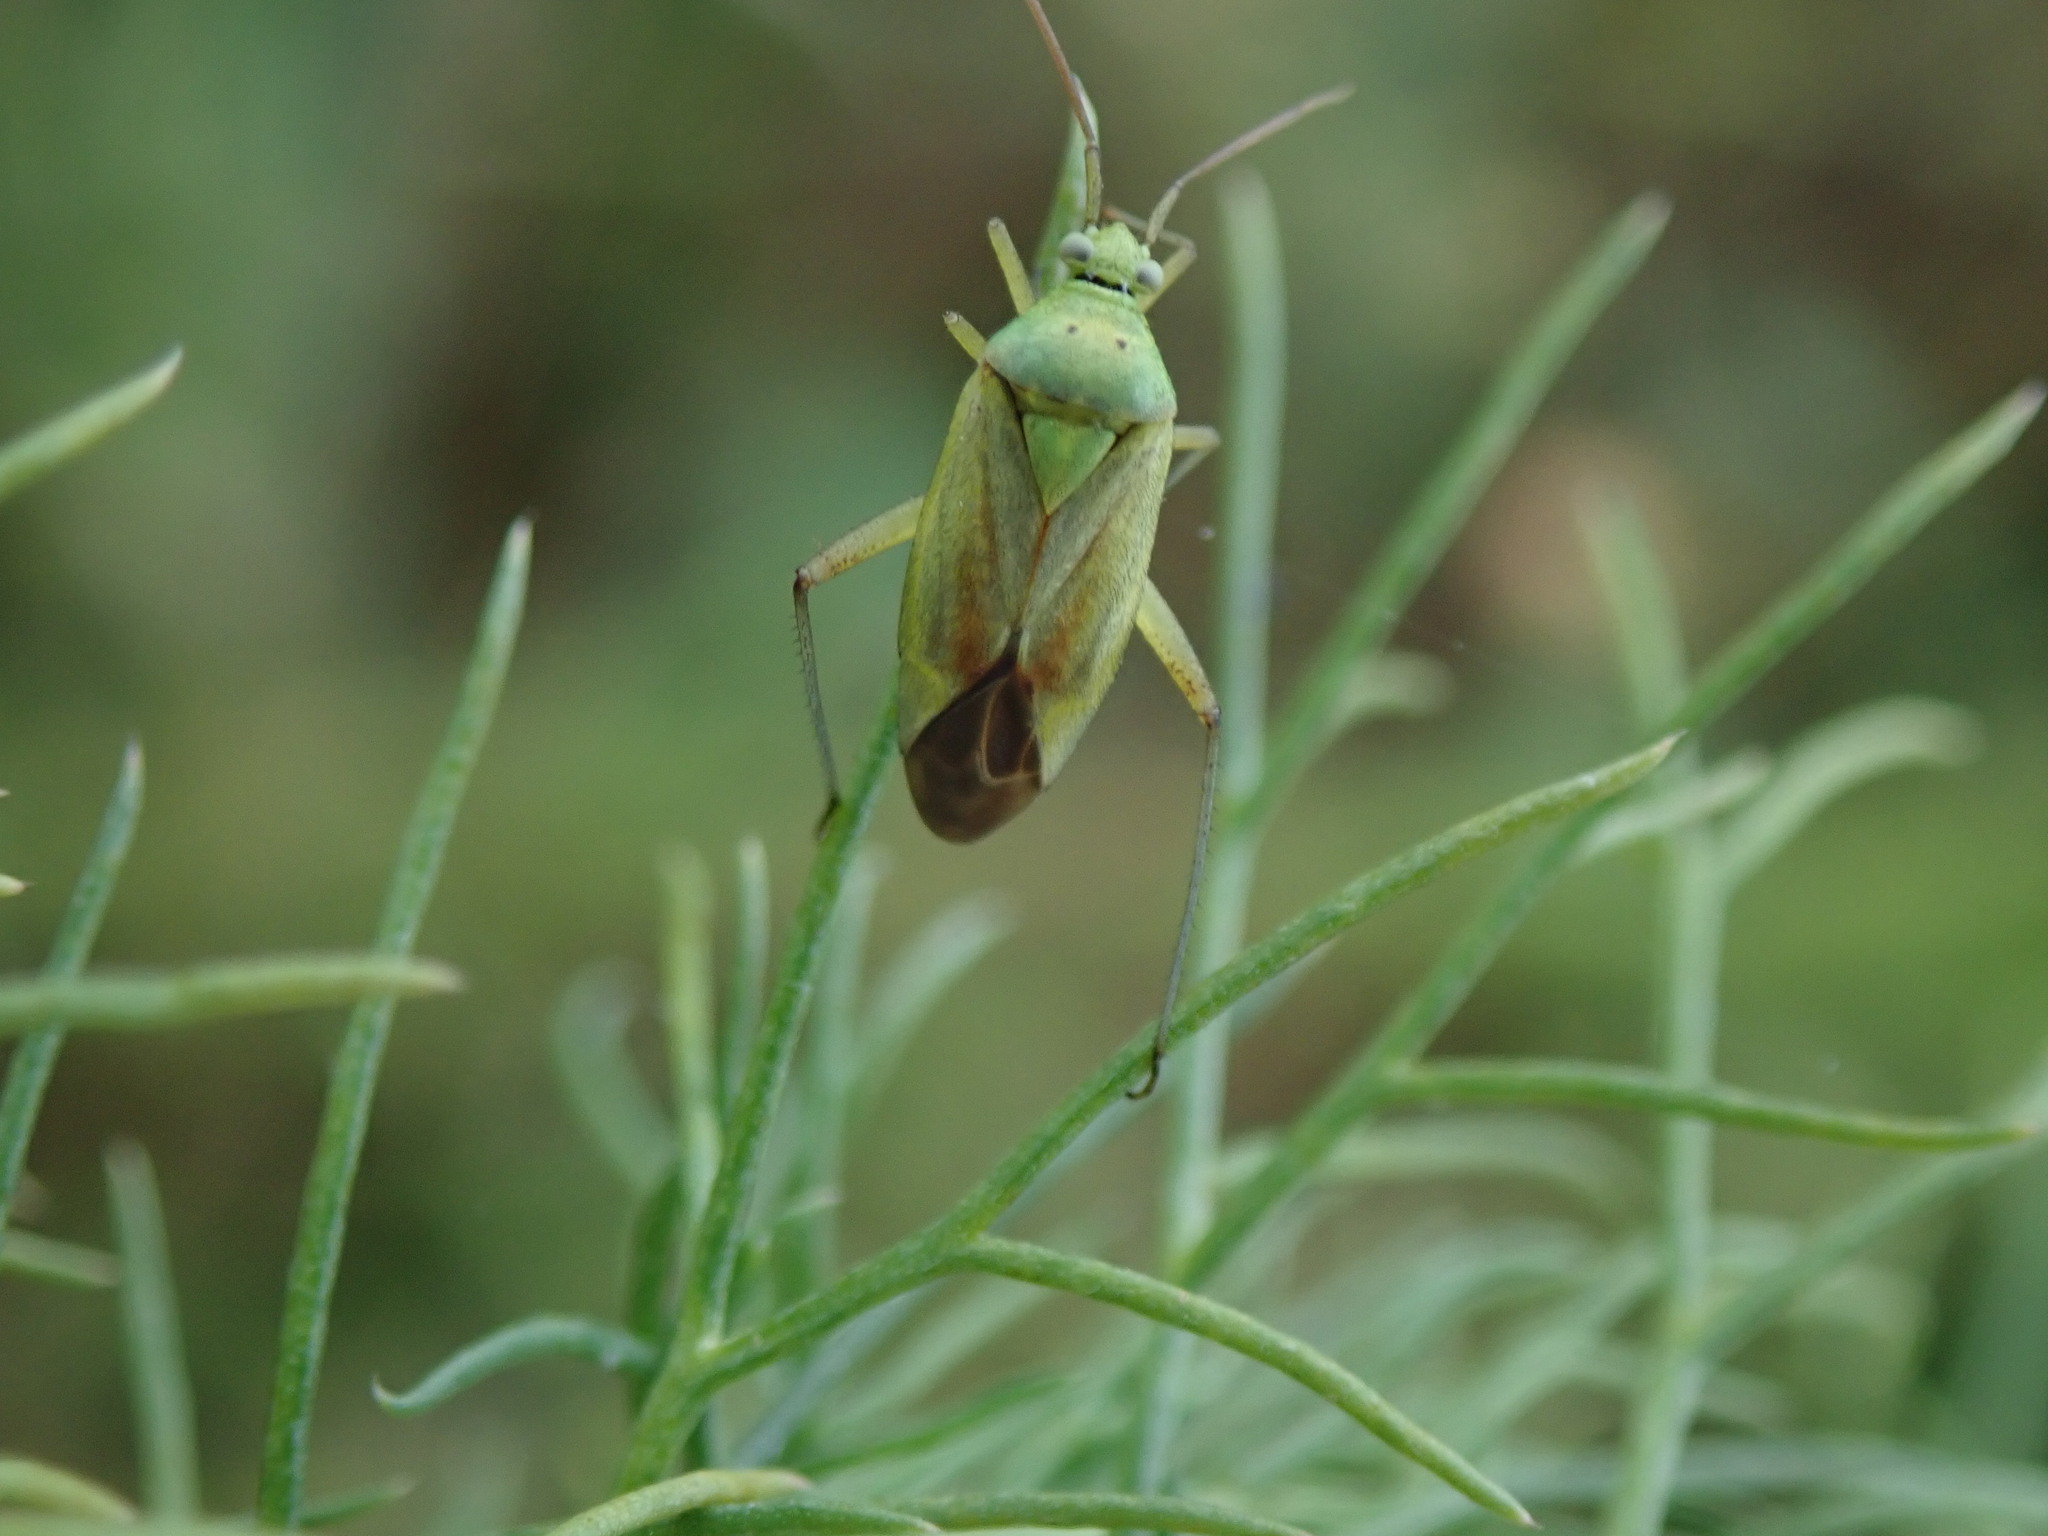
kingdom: Animalia
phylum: Arthropoda
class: Insecta
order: Hemiptera
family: Miridae
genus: Closterotomus
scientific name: Closterotomus norvegicus
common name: Plant bug
